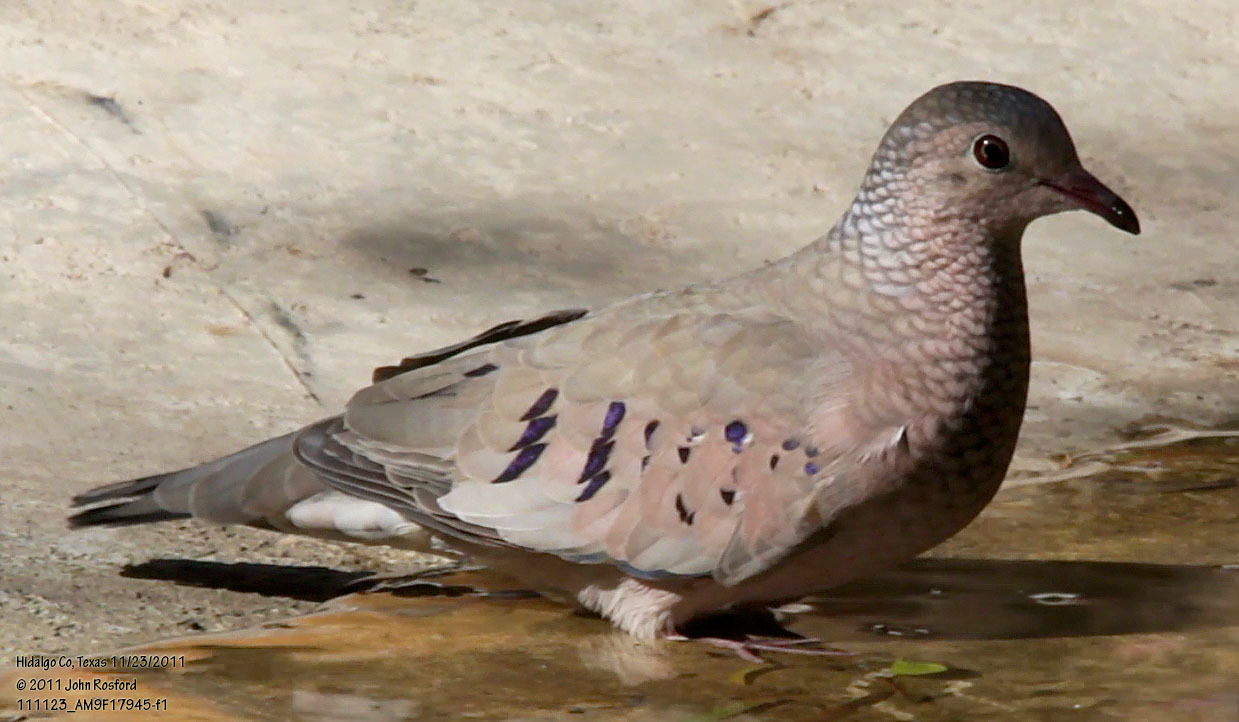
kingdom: Animalia
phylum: Chordata
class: Aves
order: Columbiformes
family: Columbidae
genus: Columbina
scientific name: Columbina passerina
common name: Common ground-dove
